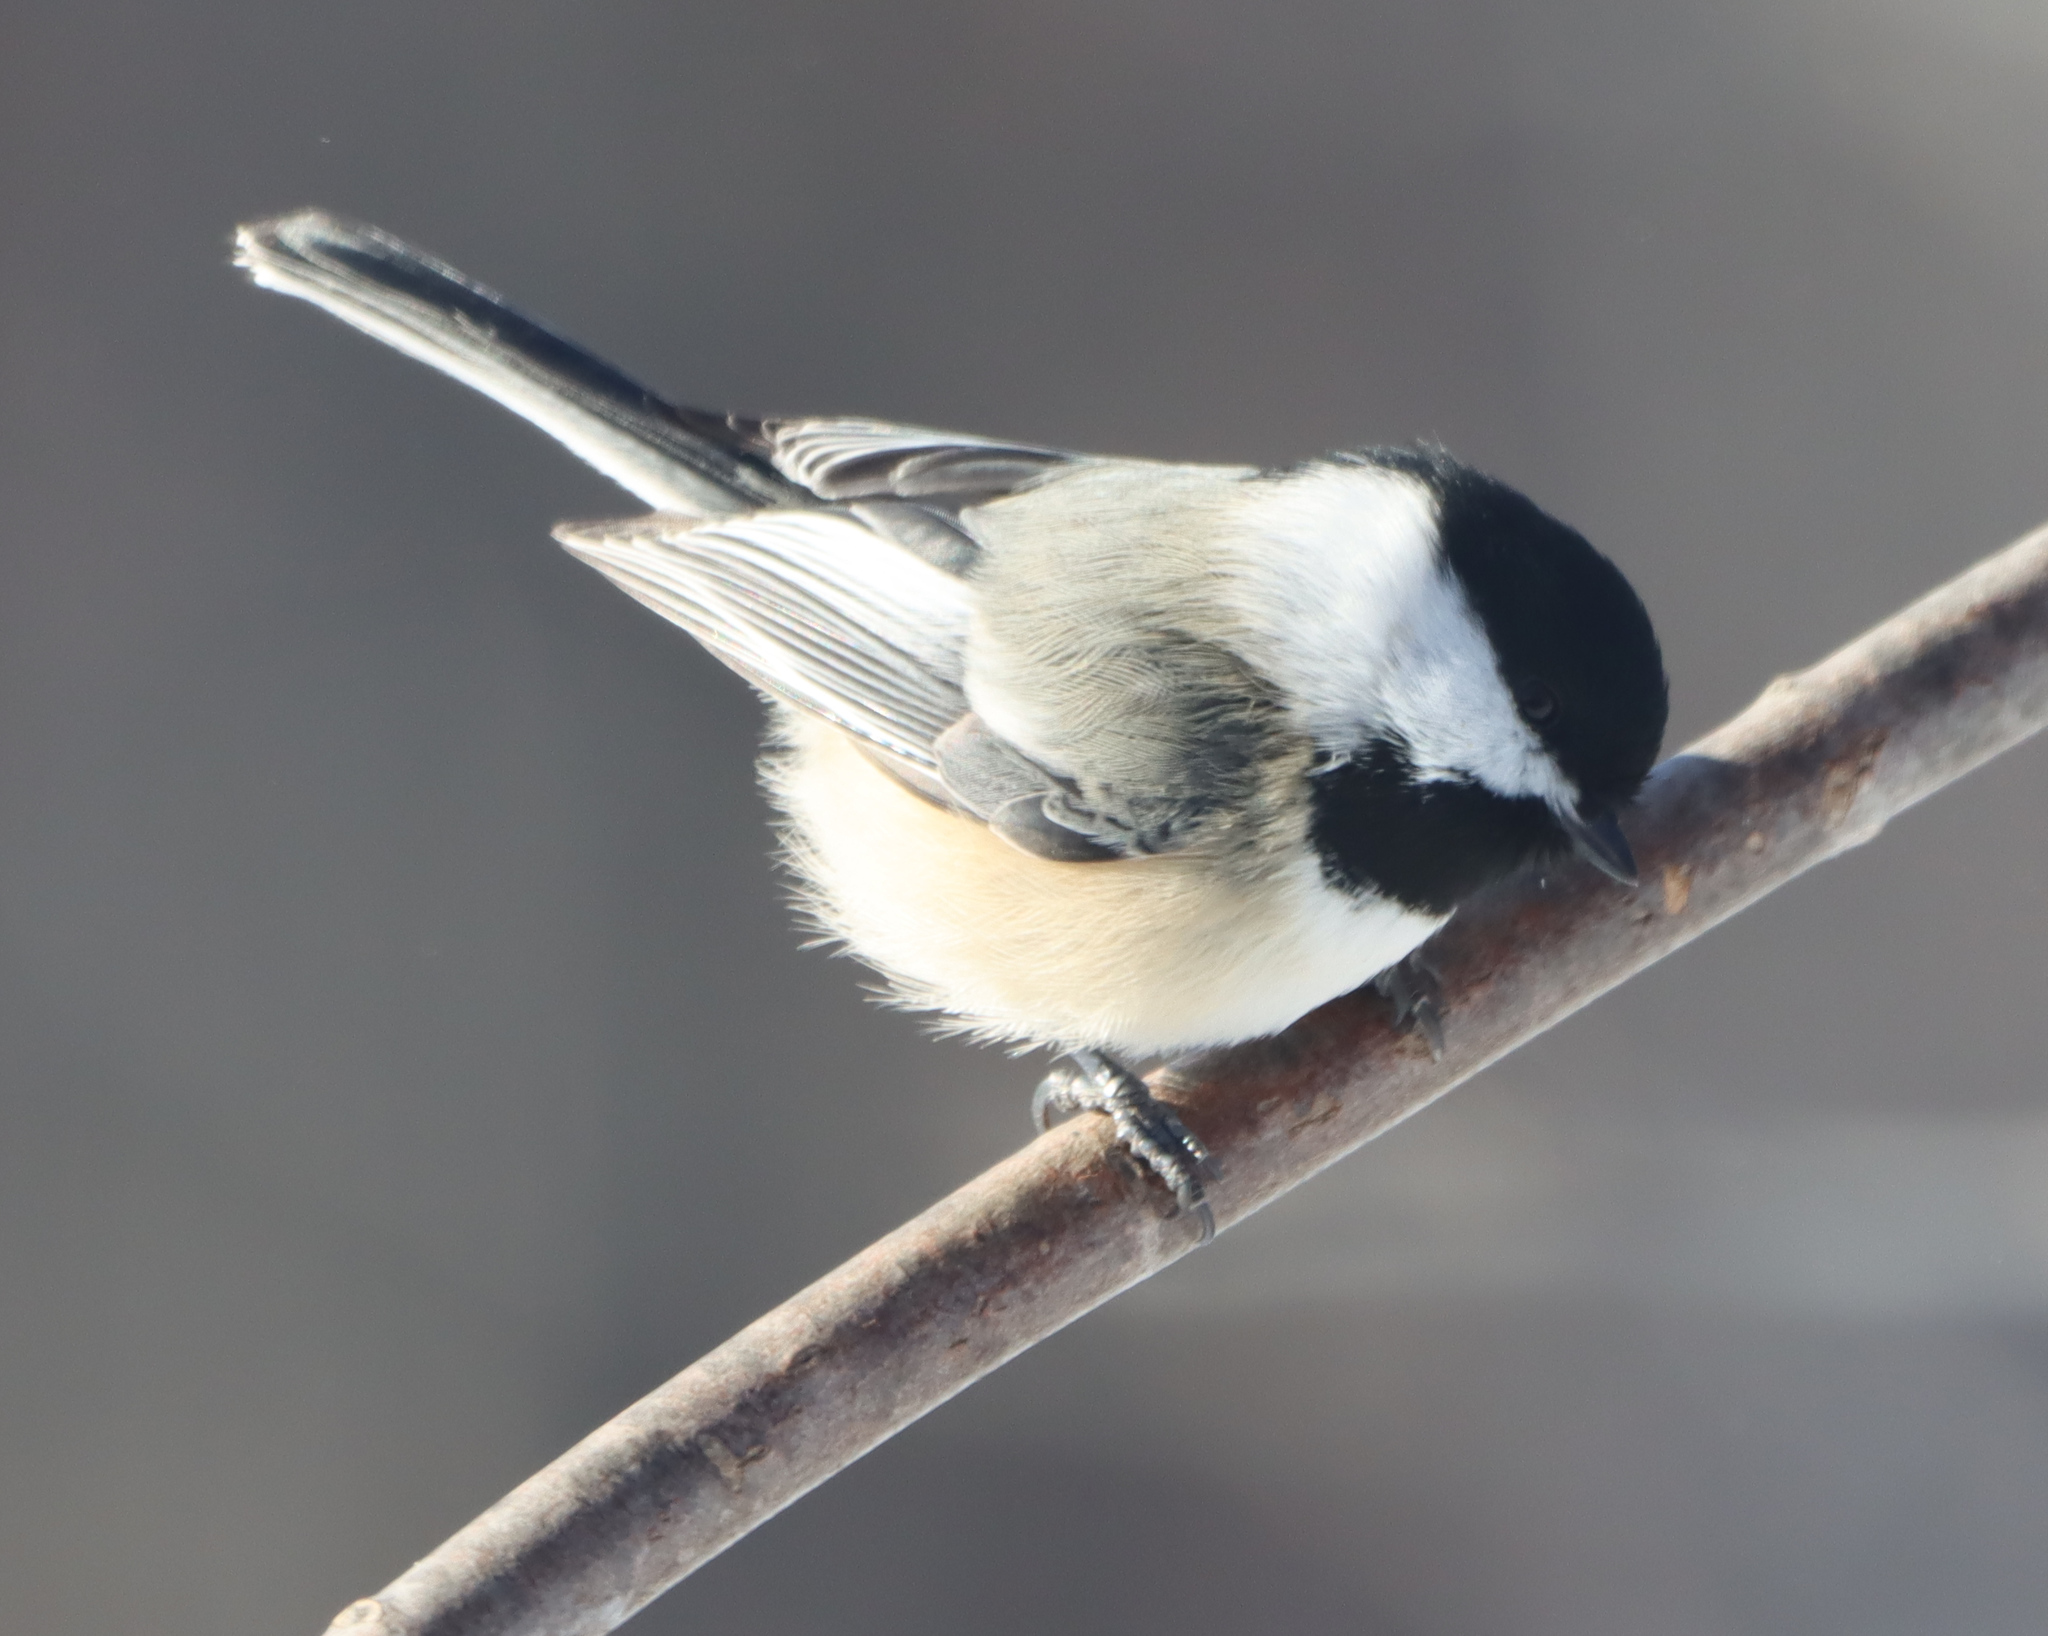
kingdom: Animalia
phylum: Chordata
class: Aves
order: Passeriformes
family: Paridae
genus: Poecile
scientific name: Poecile atricapillus
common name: Black-capped chickadee
